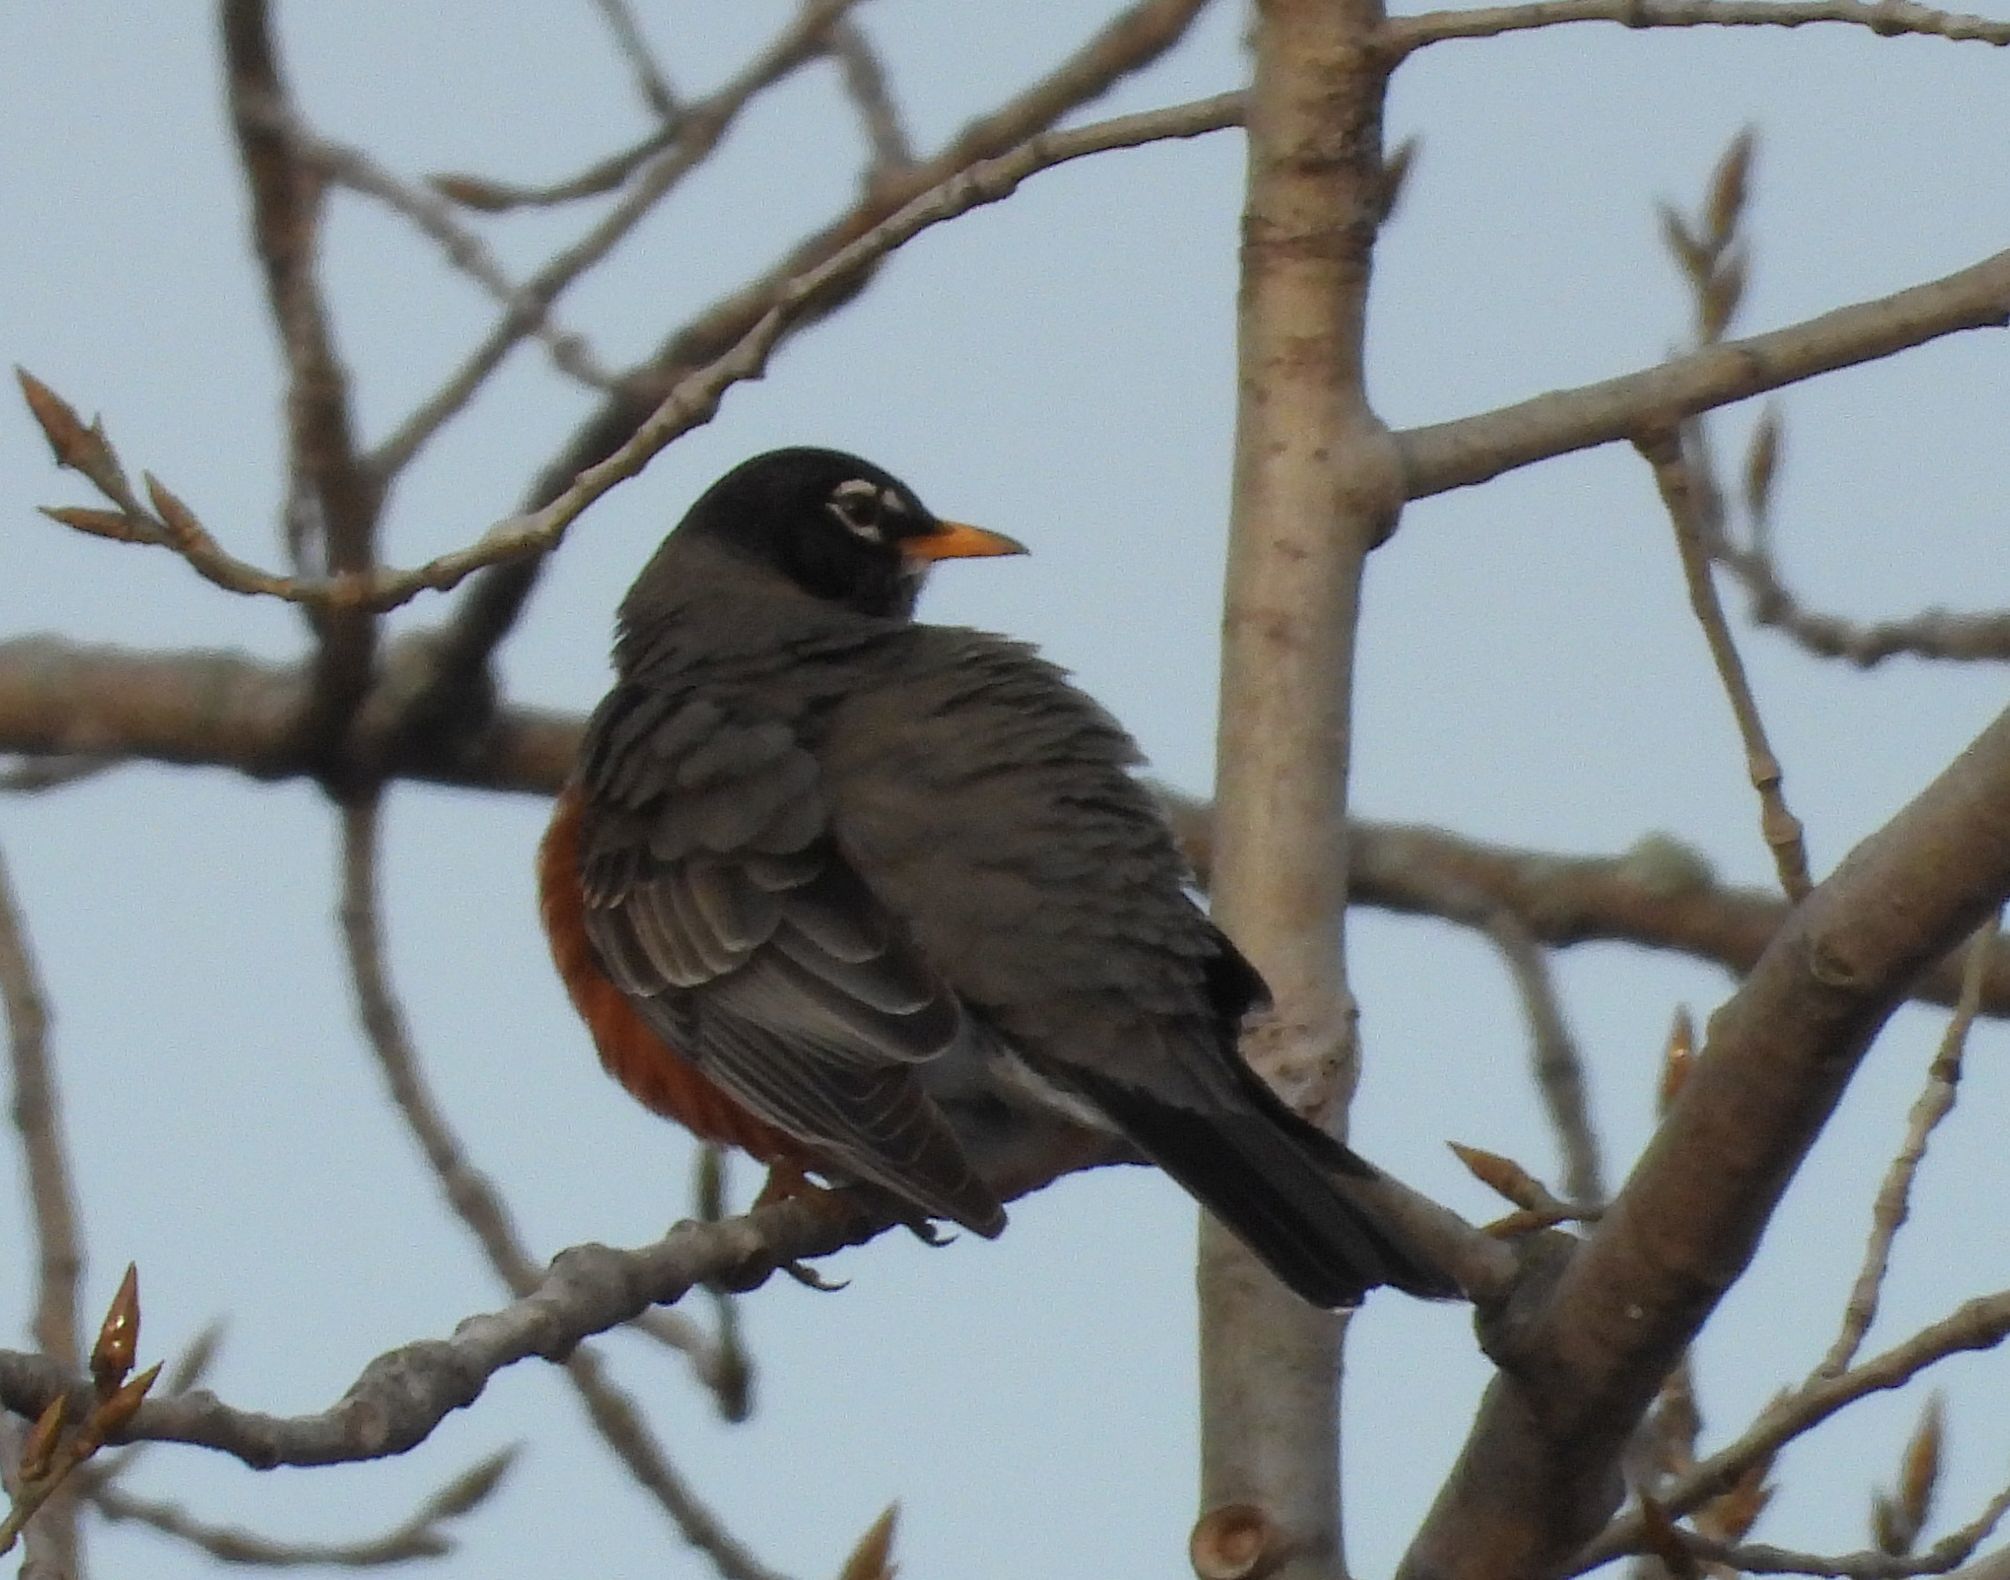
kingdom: Animalia
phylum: Chordata
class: Aves
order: Passeriformes
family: Turdidae
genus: Turdus
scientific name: Turdus migratorius
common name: American robin
